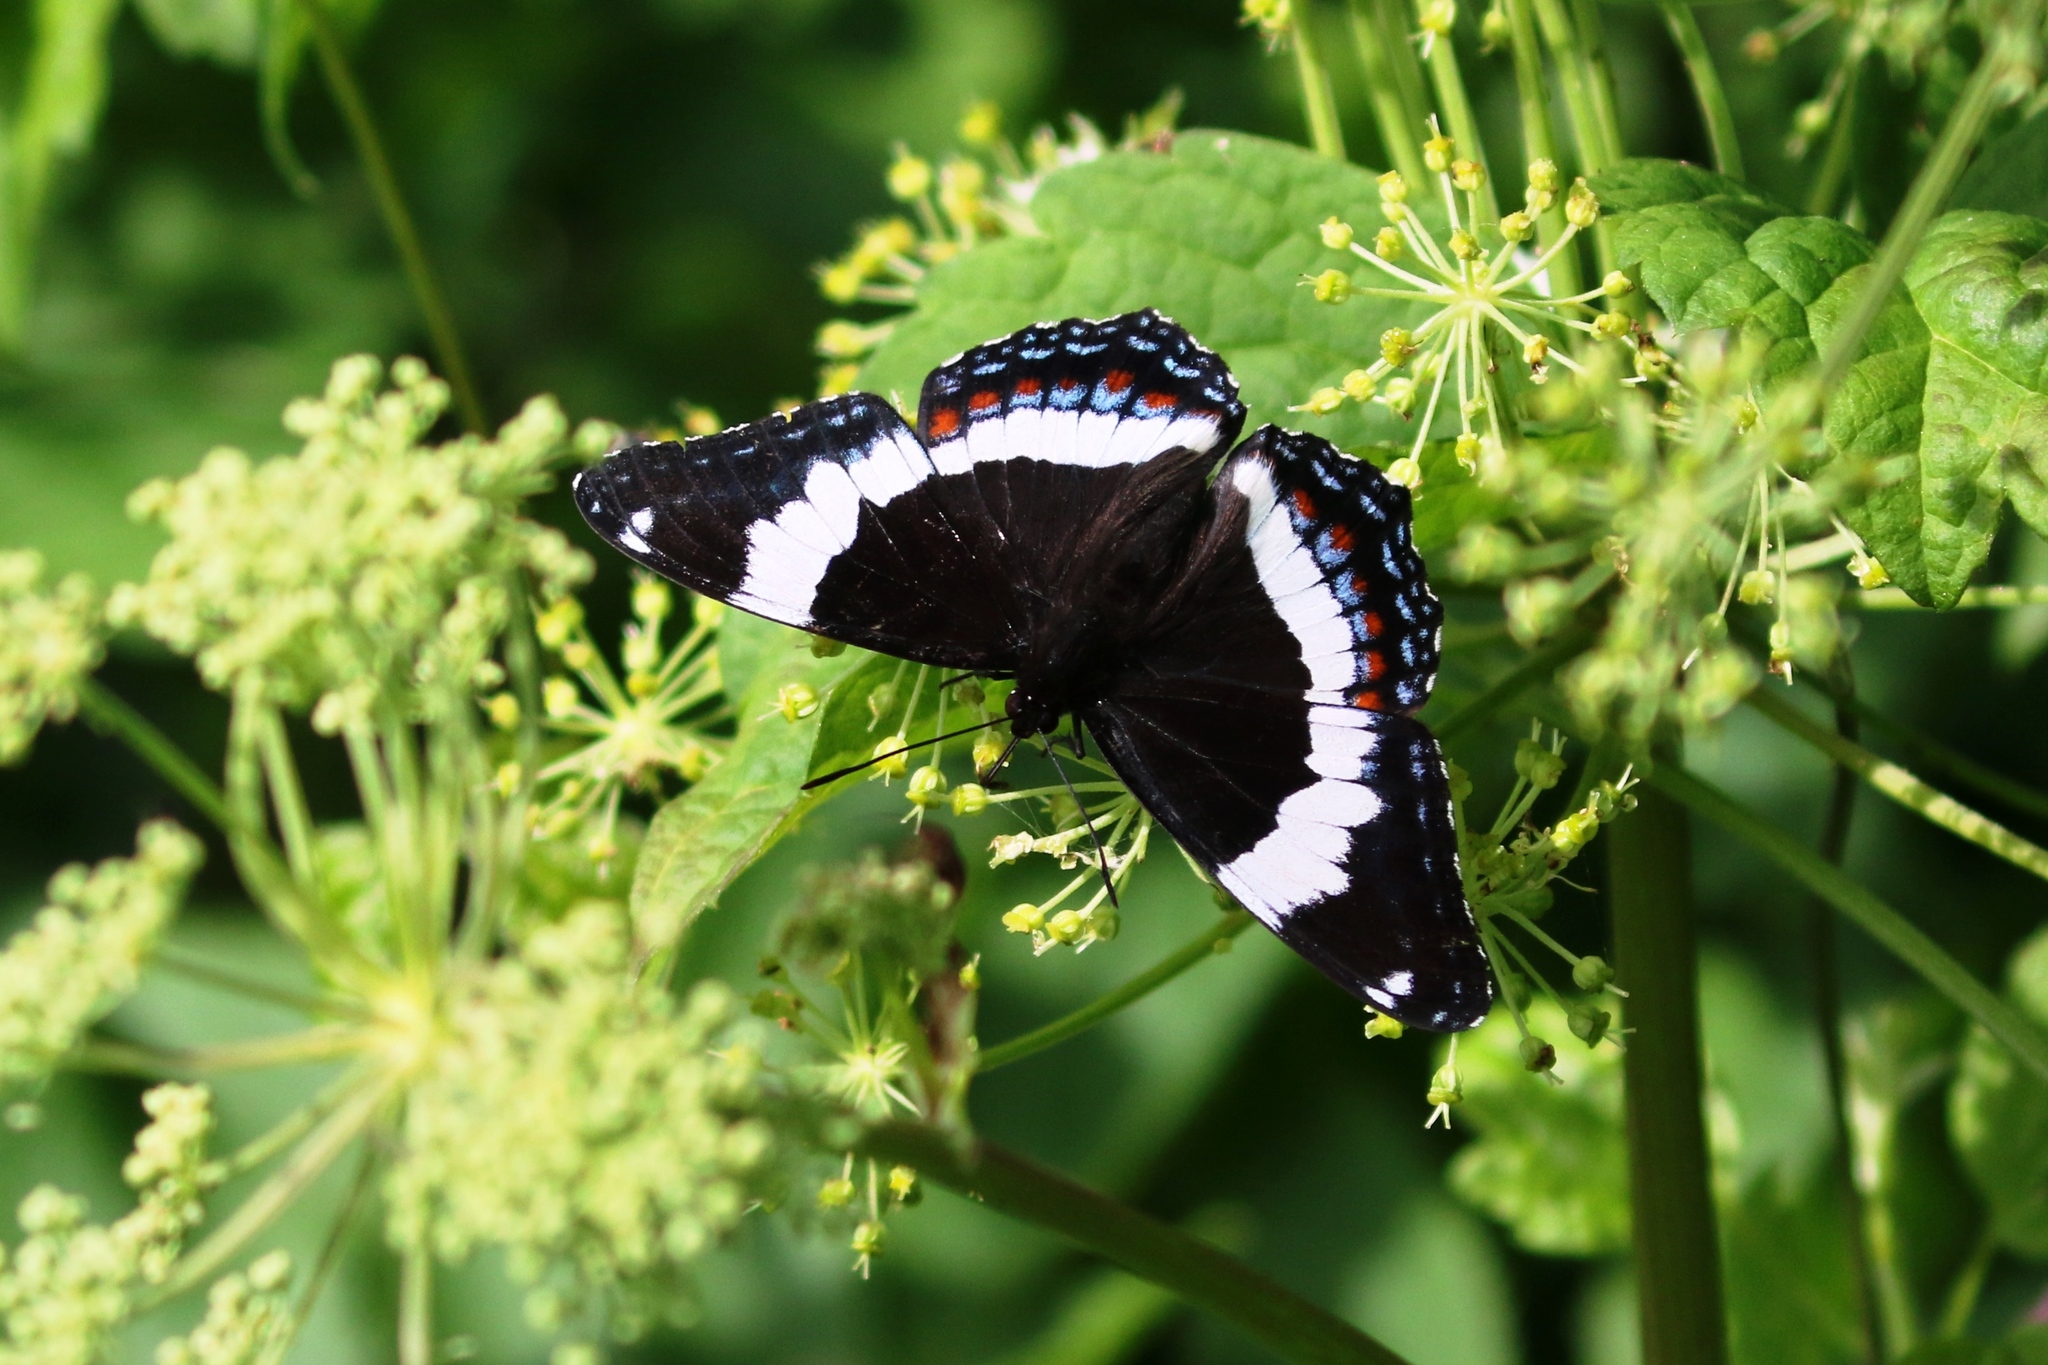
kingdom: Animalia
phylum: Arthropoda
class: Insecta
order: Lepidoptera
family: Nymphalidae
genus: Limenitis
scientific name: Limenitis arthemis
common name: Red-spotted admiral
